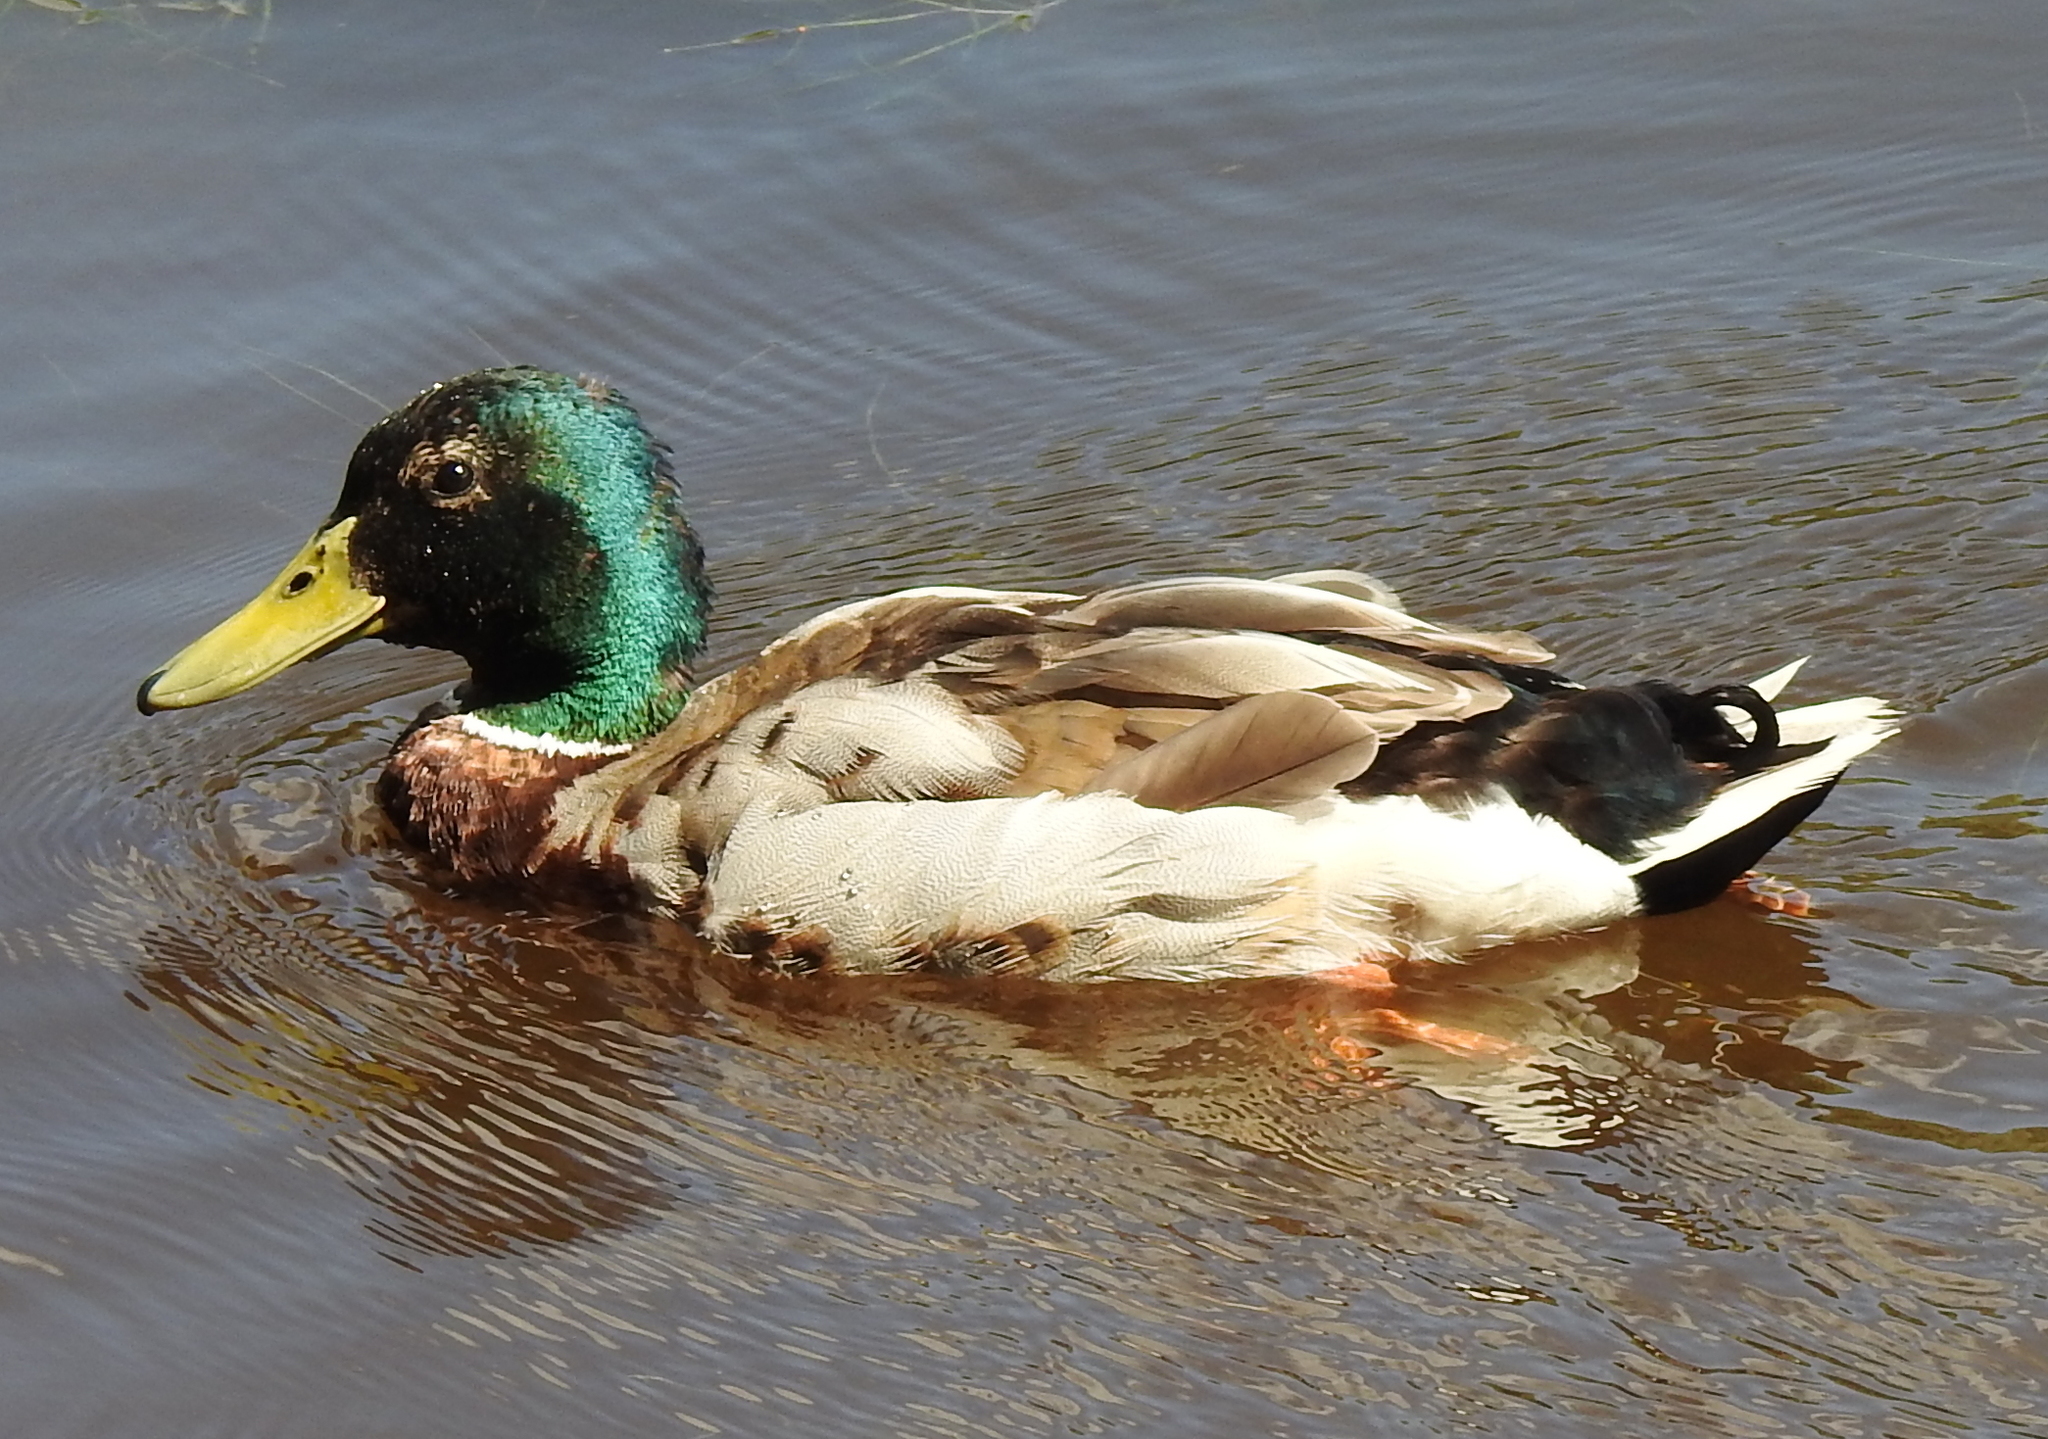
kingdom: Animalia
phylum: Chordata
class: Aves
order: Anseriformes
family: Anatidae
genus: Anas
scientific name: Anas platyrhynchos
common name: Mallard
